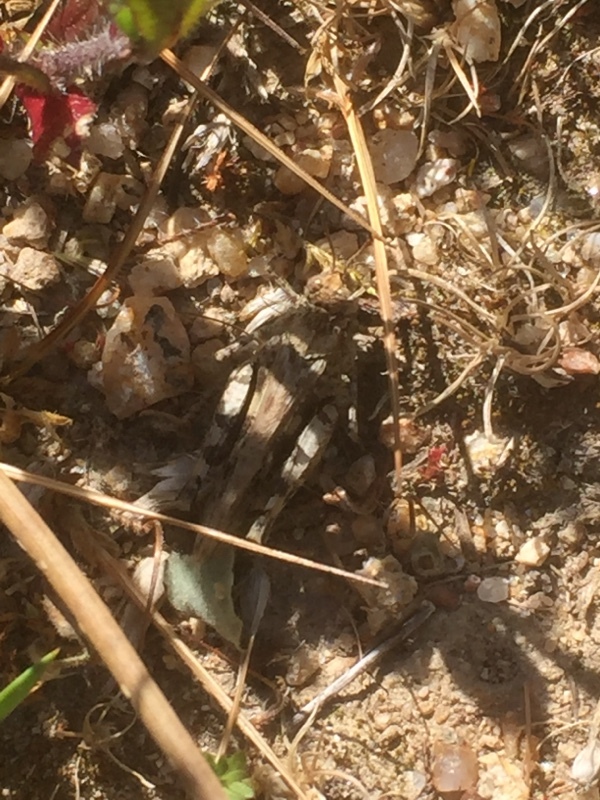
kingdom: Animalia
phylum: Arthropoda
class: Insecta
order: Orthoptera
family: Acrididae
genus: Acrotylus
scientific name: Acrotylus fischeri
